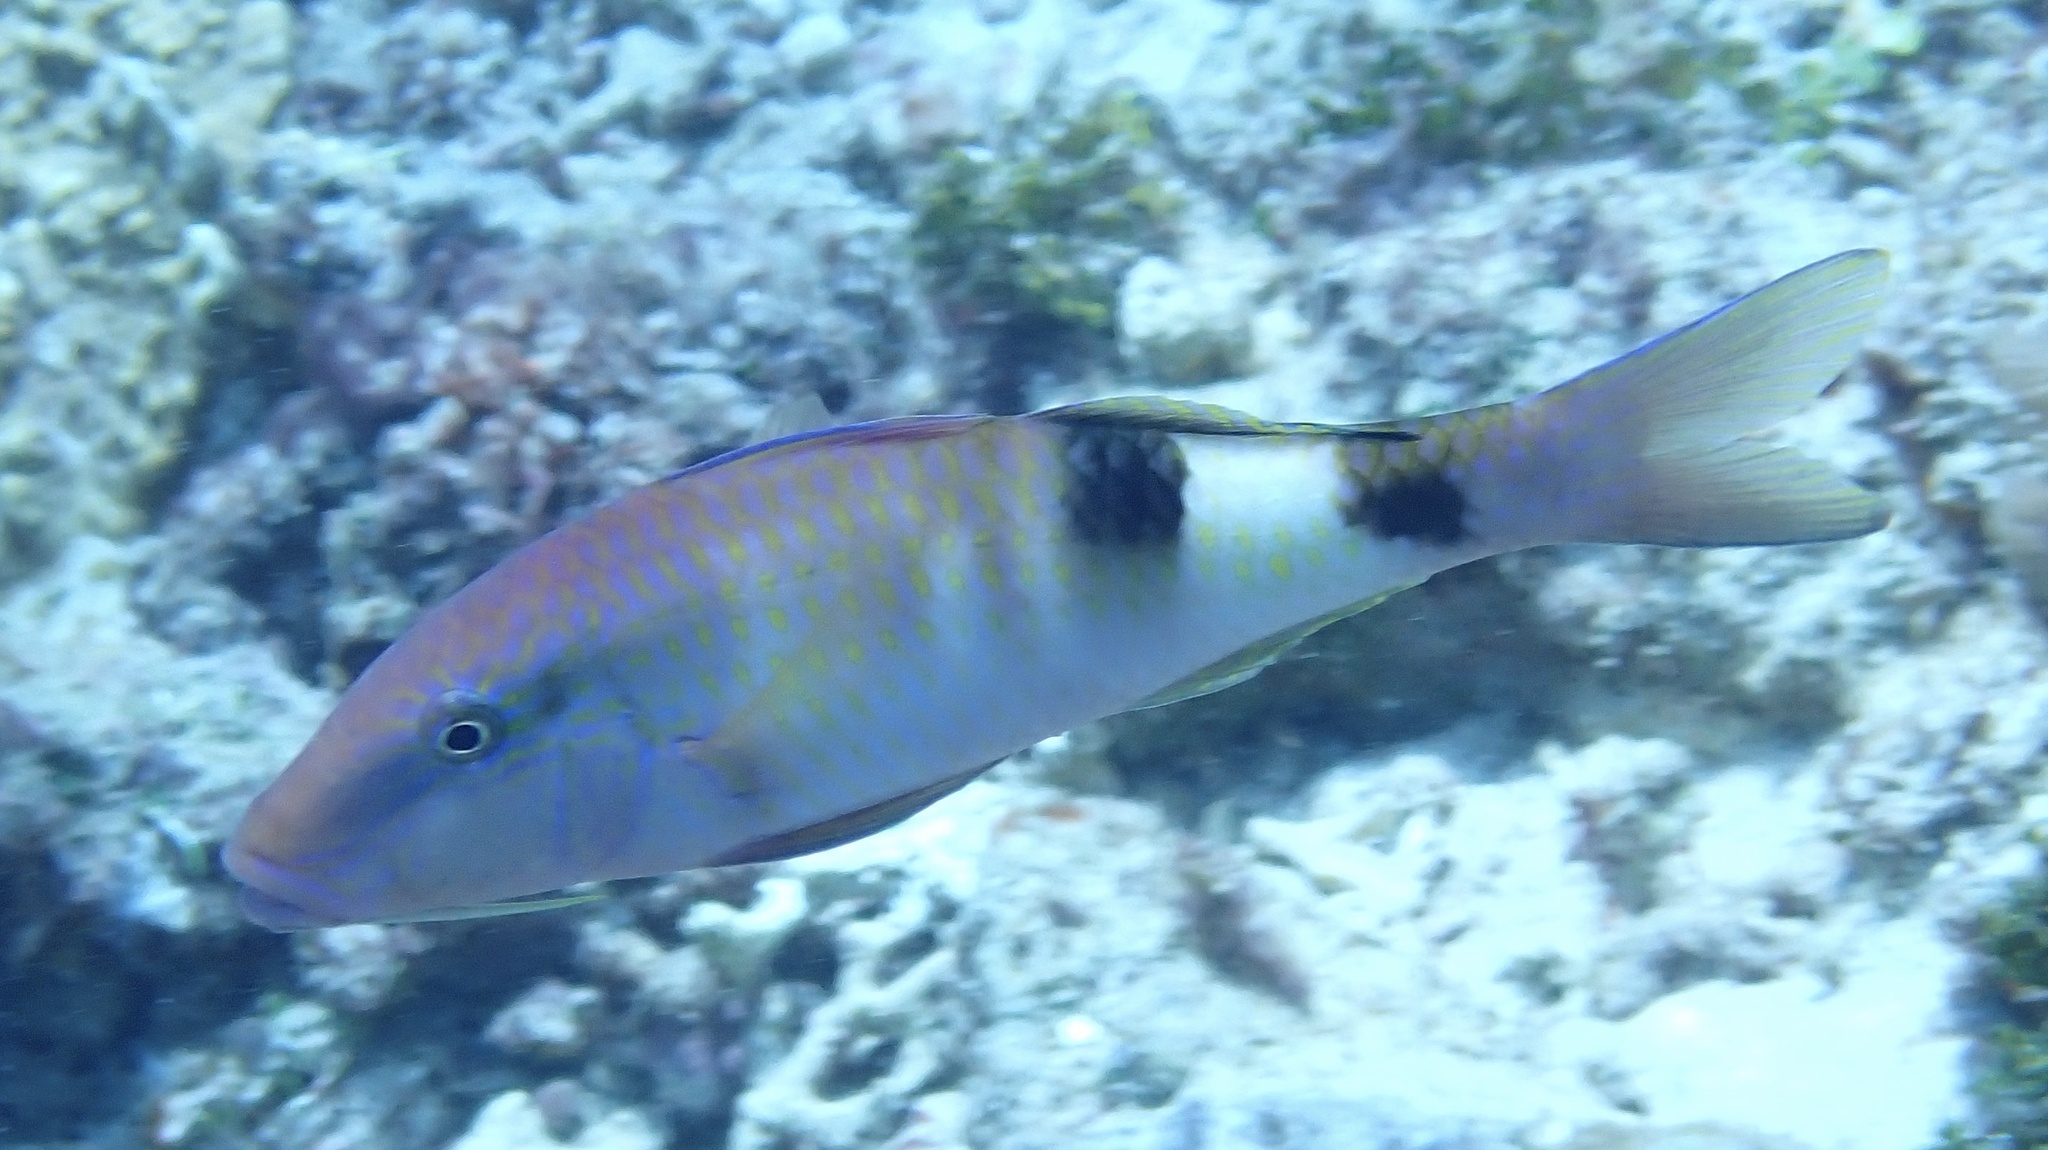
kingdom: Animalia
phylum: Chordata
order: Perciformes
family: Mullidae
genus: Parupeneus
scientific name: Parupeneus multifasciatus
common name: Manybar goatfish
